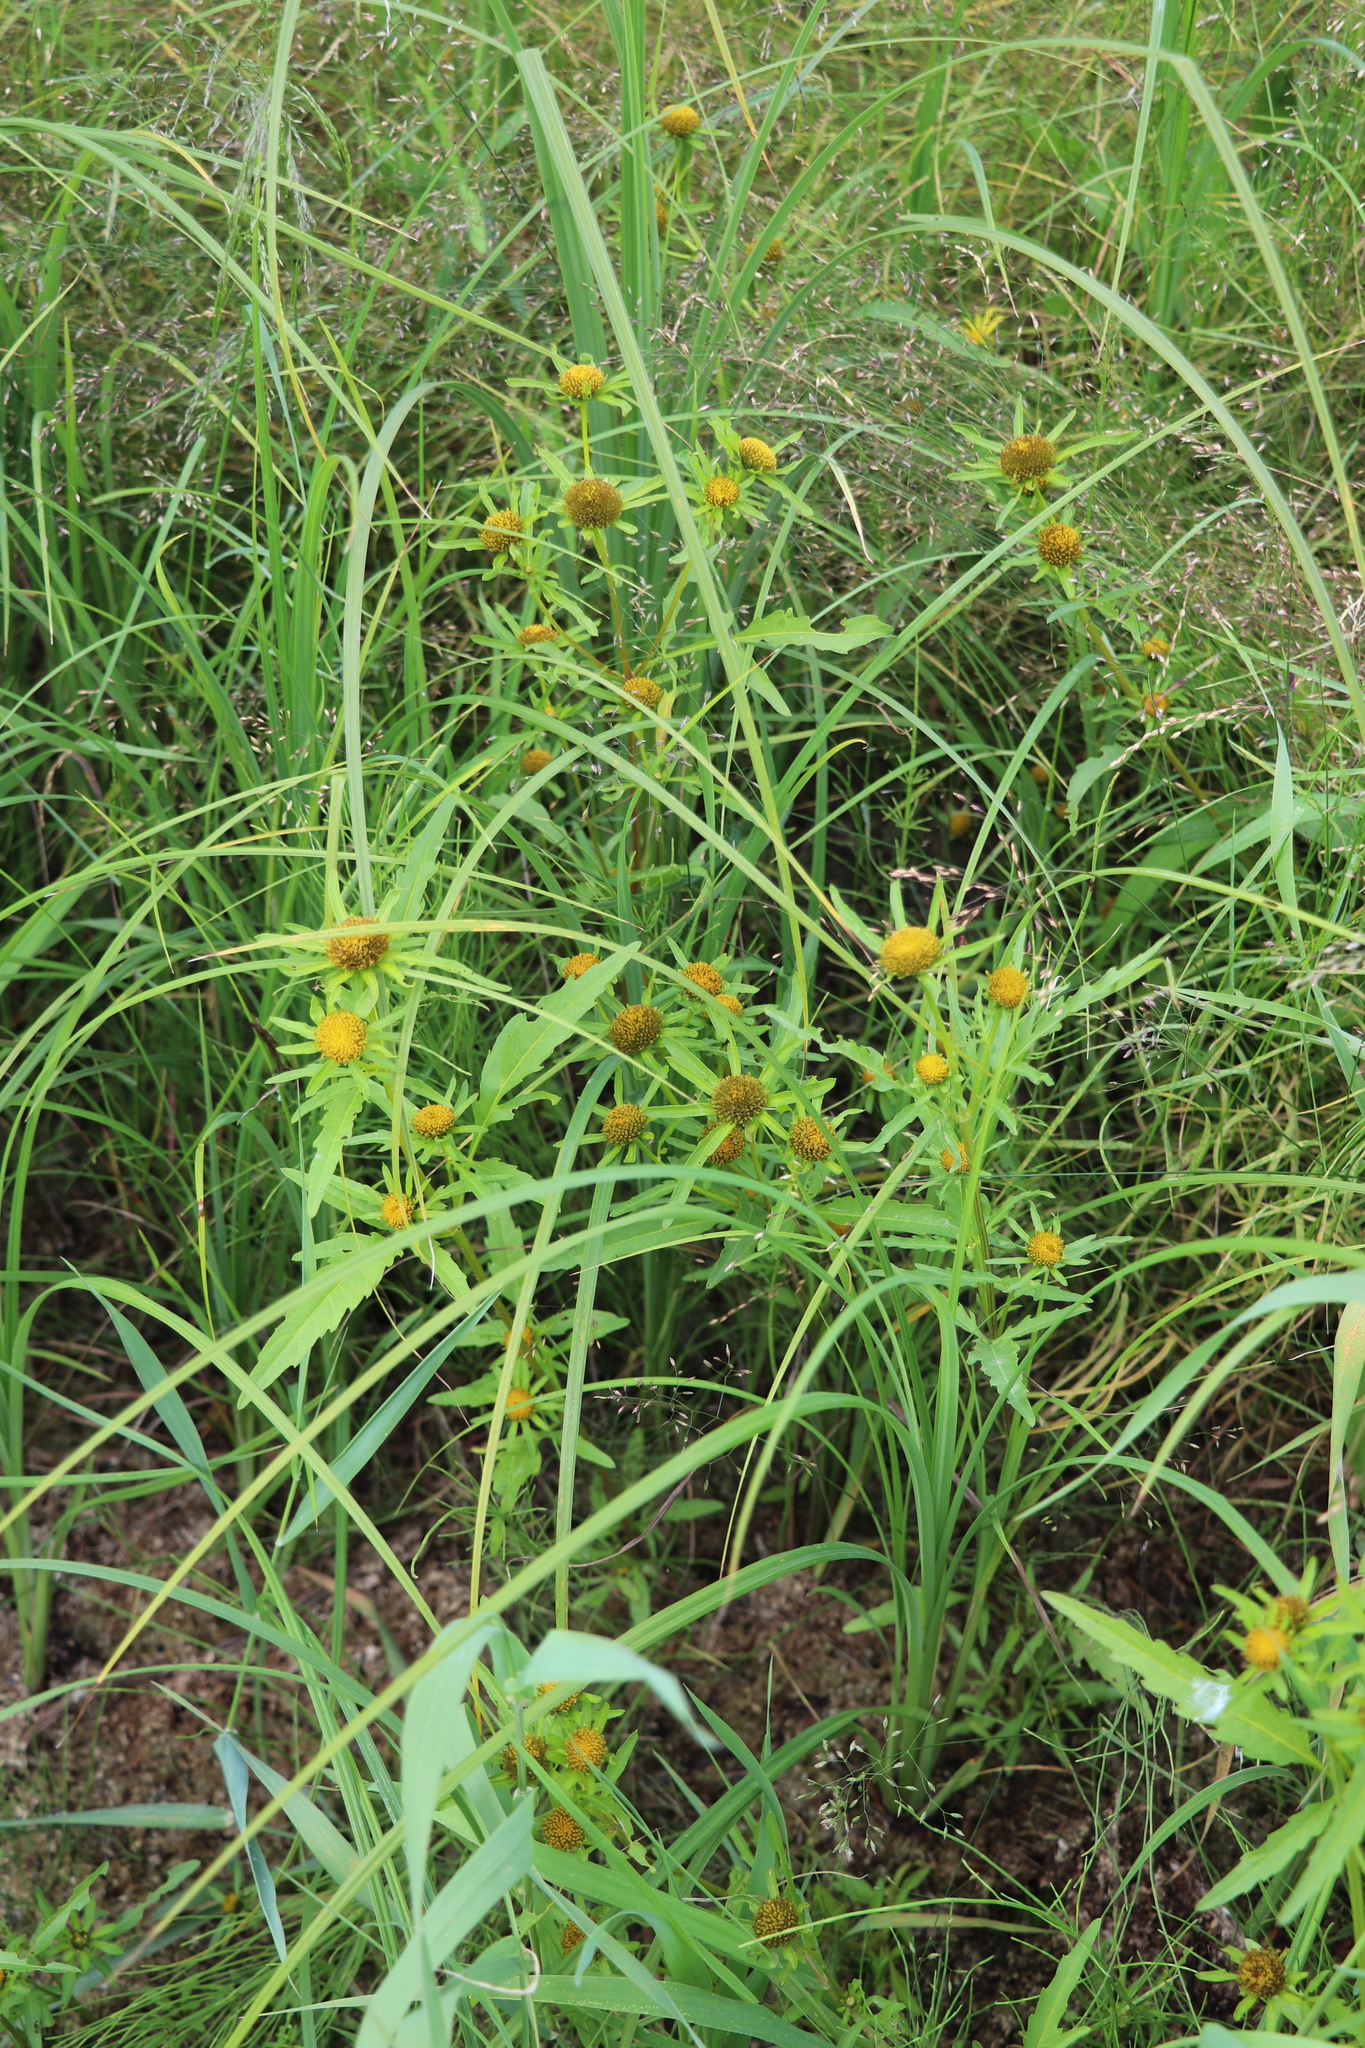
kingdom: Plantae
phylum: Tracheophyta
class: Magnoliopsida
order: Asterales
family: Asteraceae
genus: Bidens
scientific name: Bidens radiata
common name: Radiating bur-marigold
